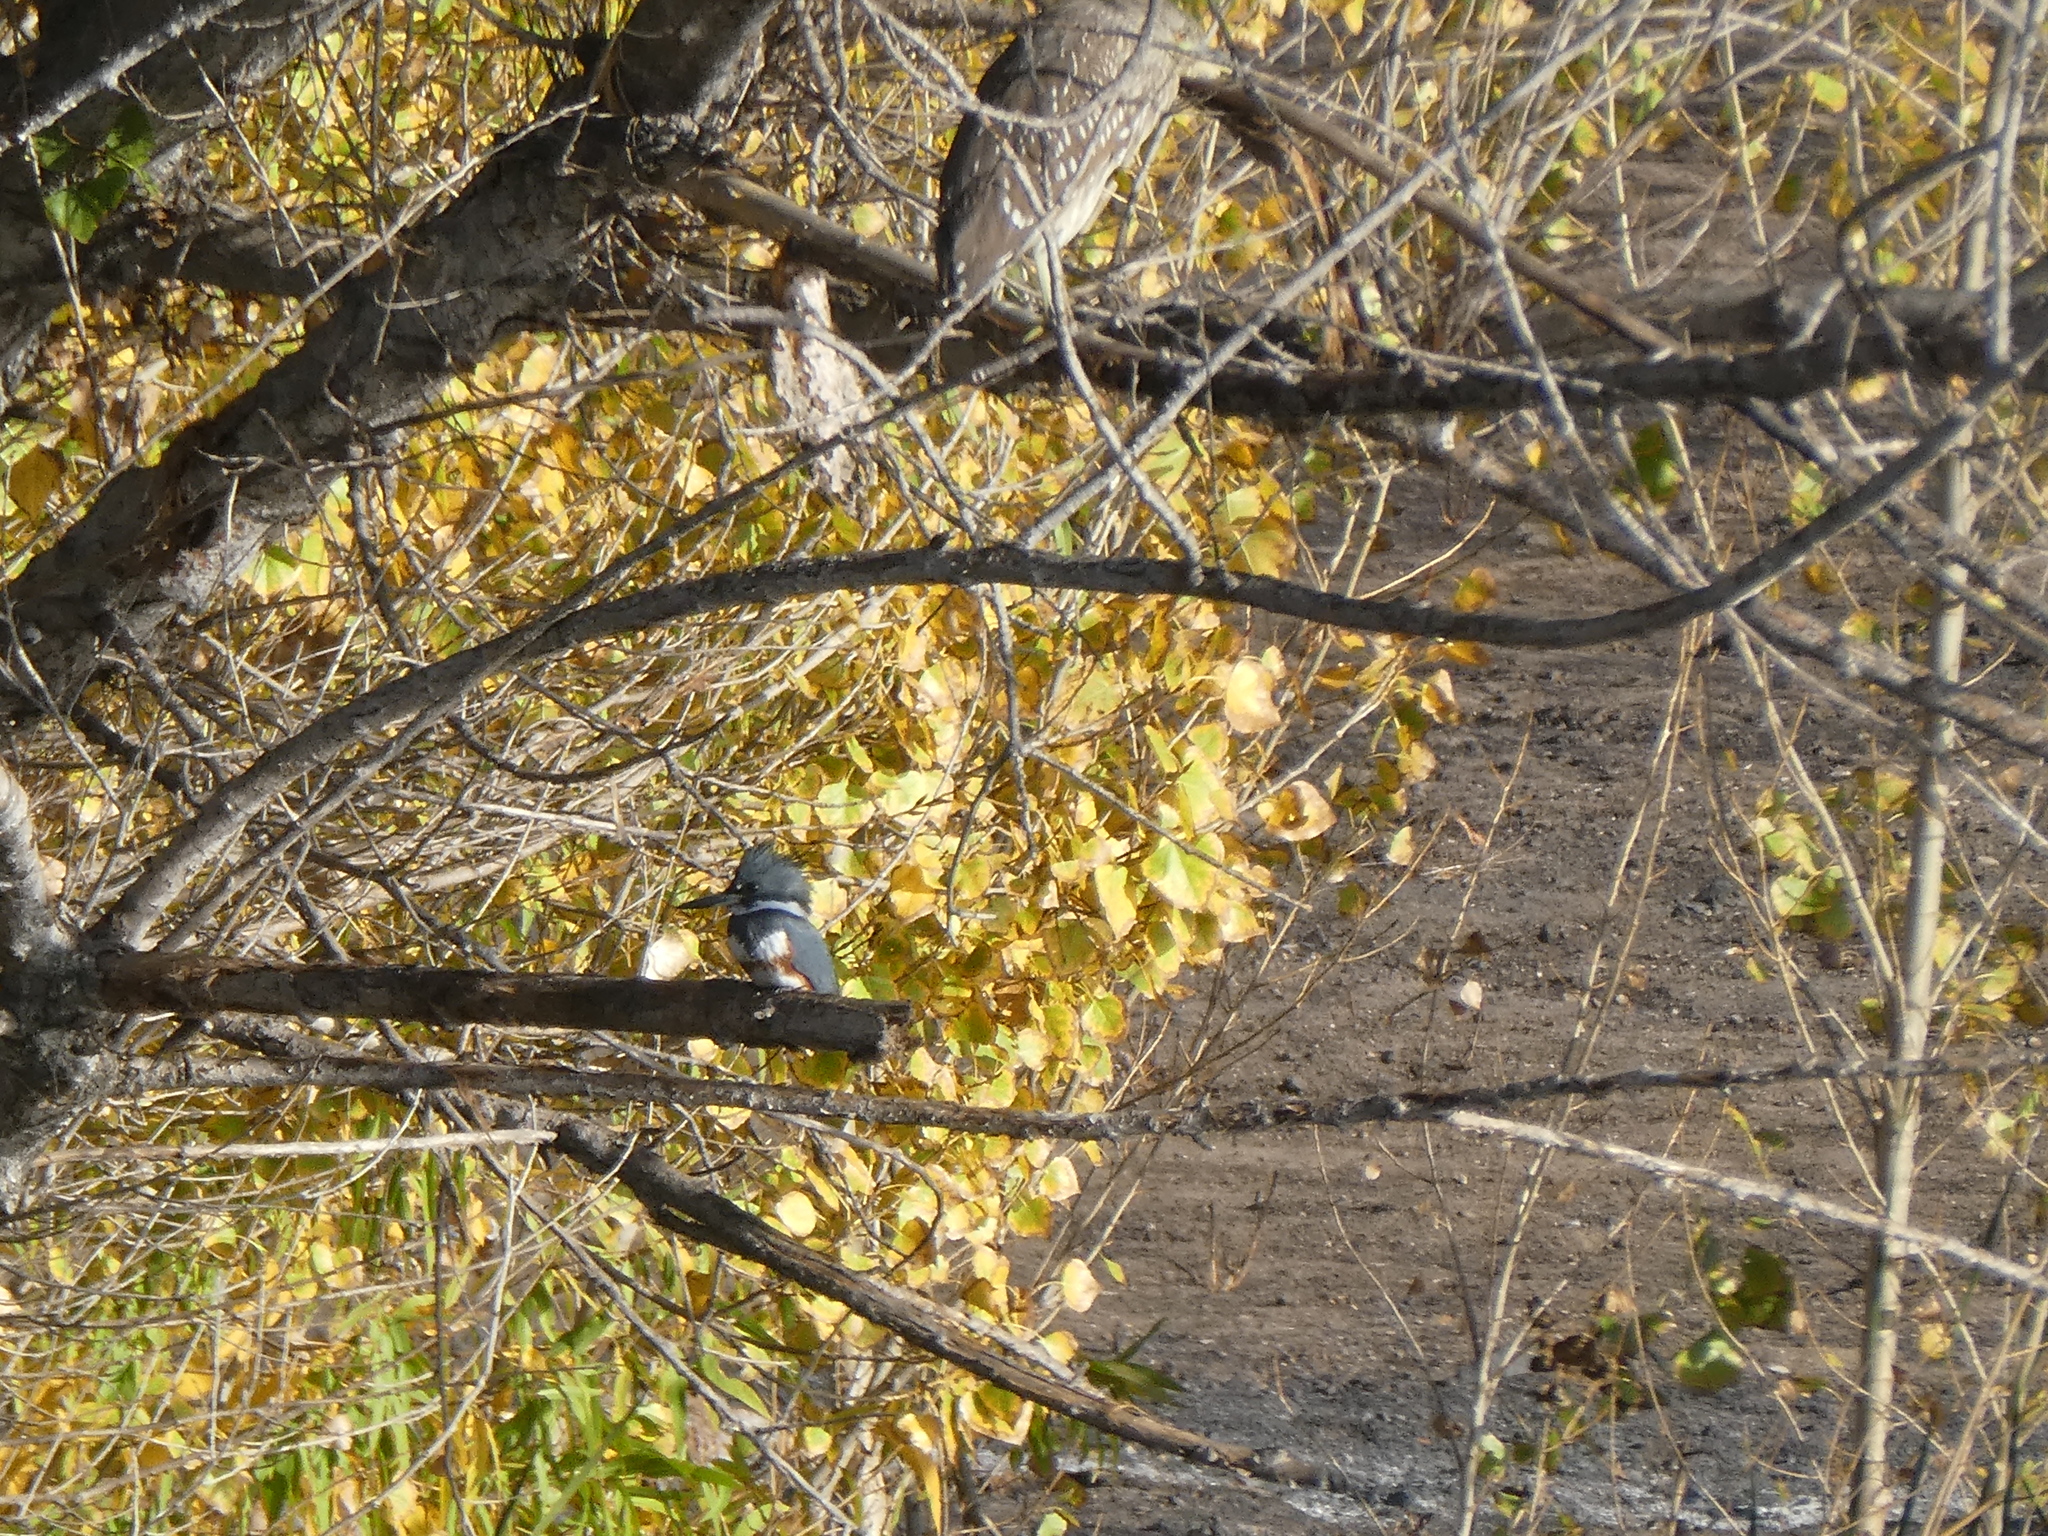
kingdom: Animalia
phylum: Chordata
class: Aves
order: Coraciiformes
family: Alcedinidae
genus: Megaceryle
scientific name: Megaceryle alcyon
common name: Belted kingfisher
